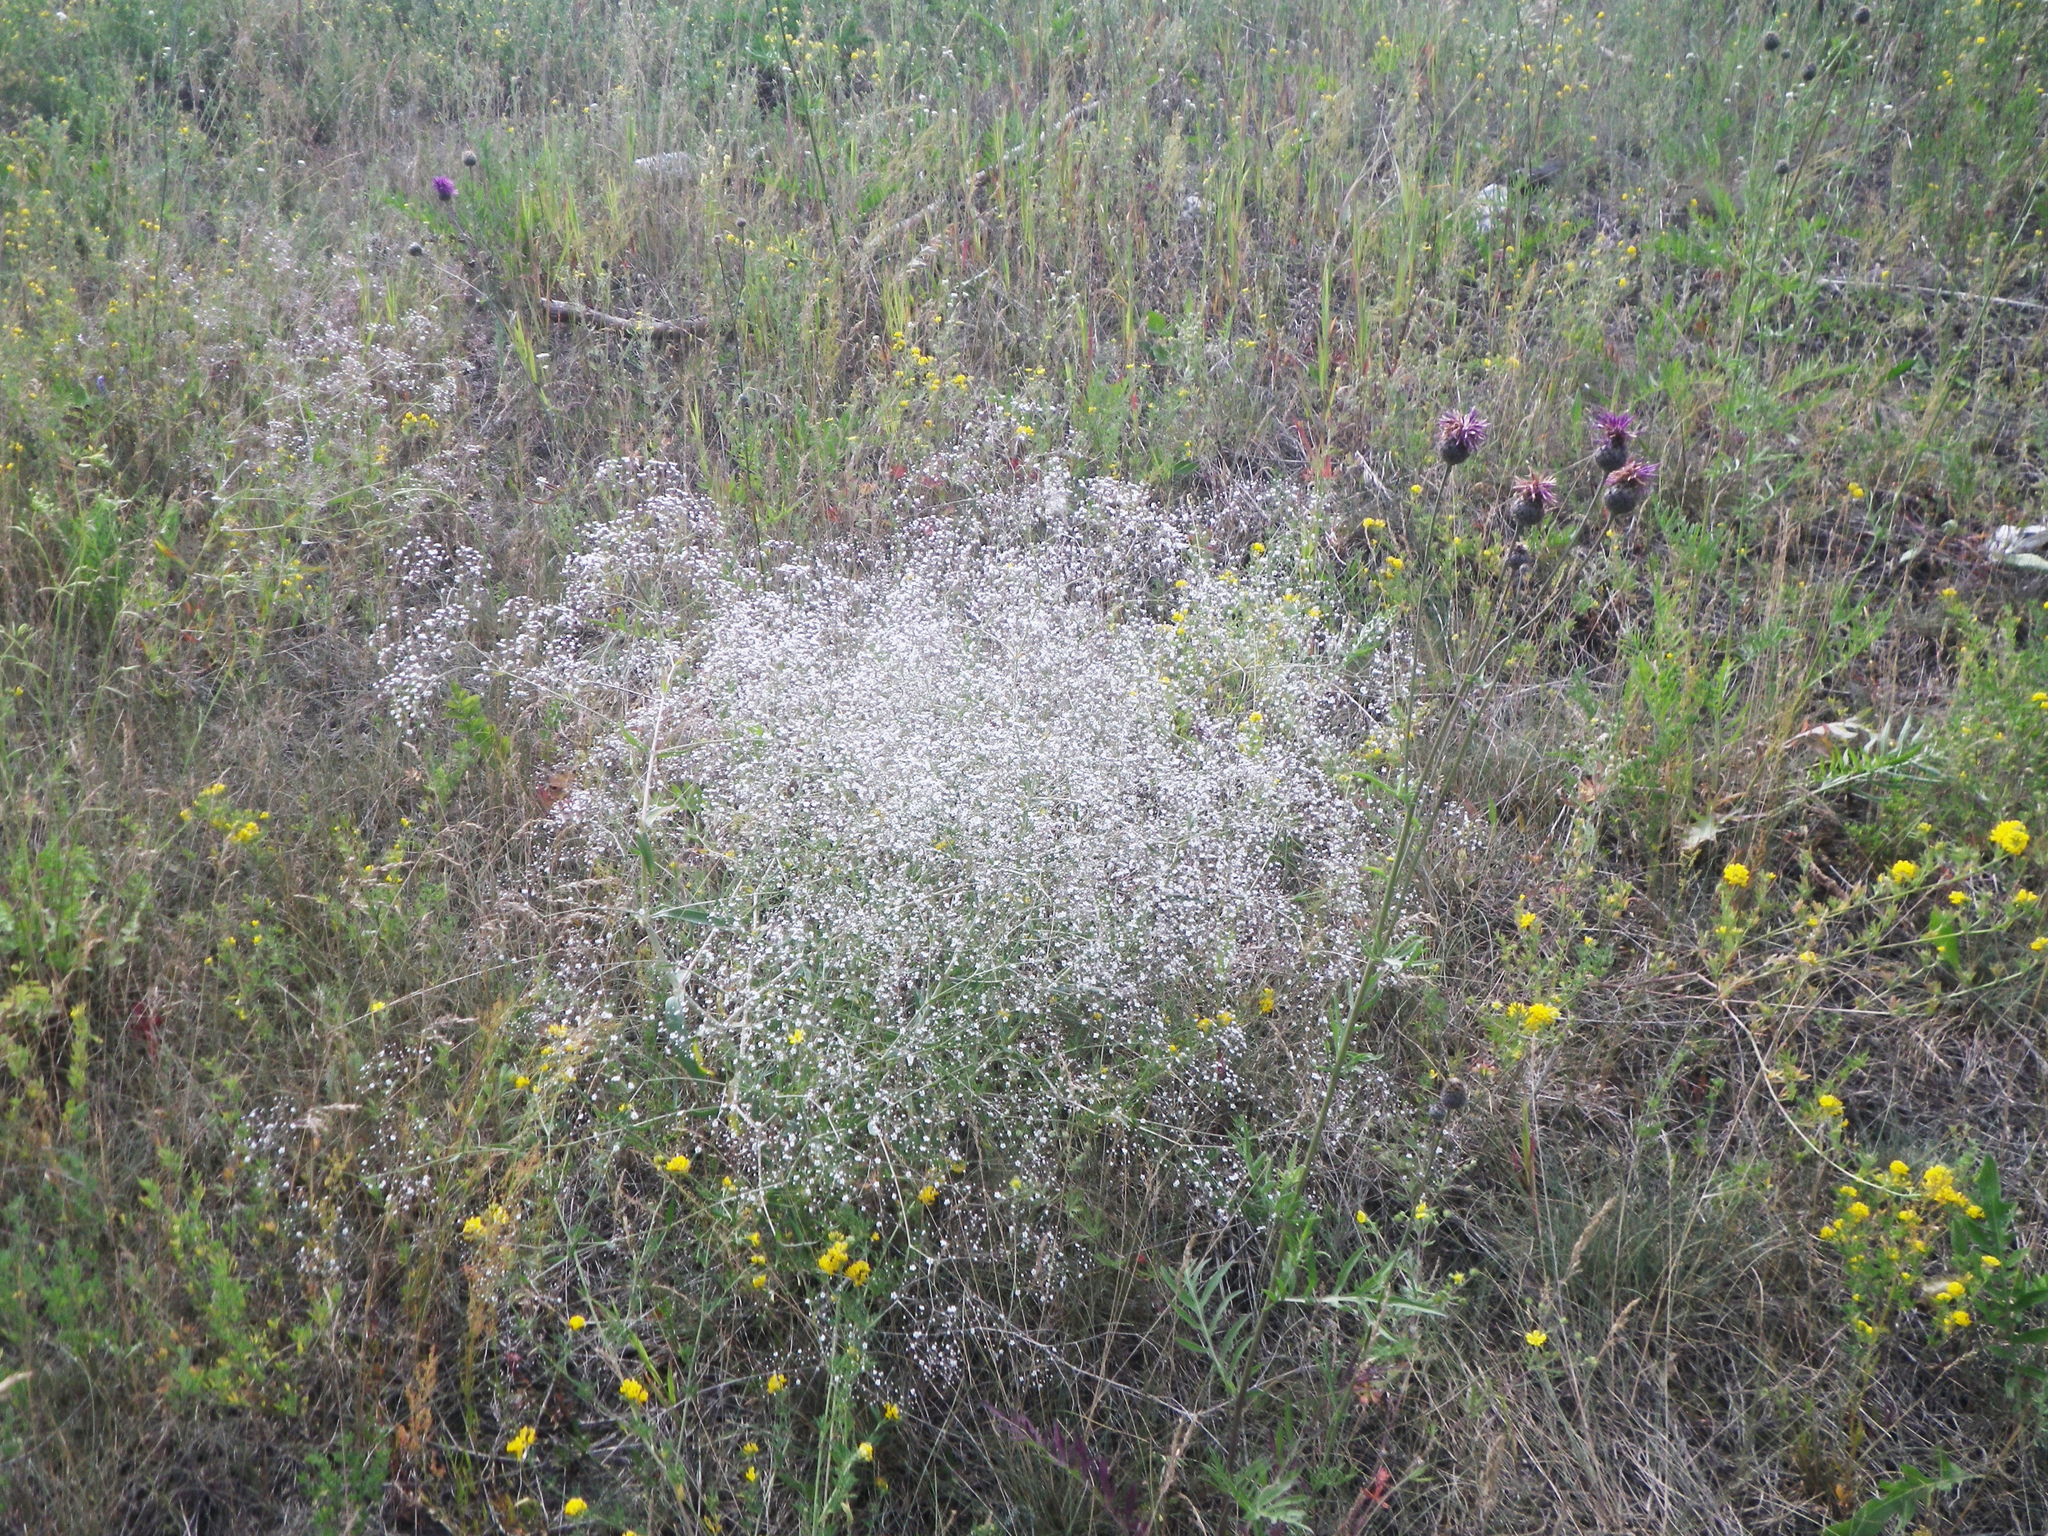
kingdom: Plantae
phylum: Tracheophyta
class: Magnoliopsida
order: Caryophyllales
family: Caryophyllaceae
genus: Gypsophila
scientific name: Gypsophila paniculata
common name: Baby's-breath
